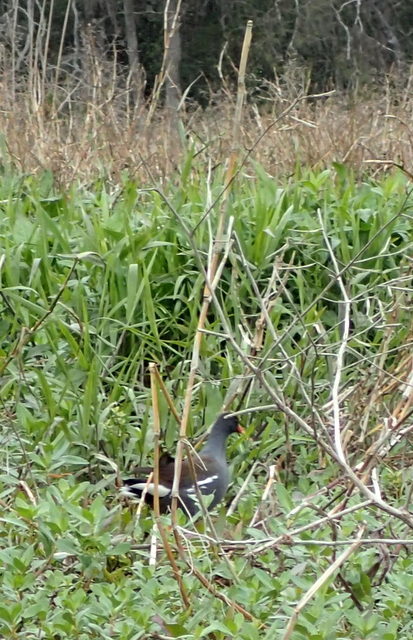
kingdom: Animalia
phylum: Chordata
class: Aves
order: Gruiformes
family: Rallidae
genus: Gallinula
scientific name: Gallinula chloropus
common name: Common moorhen
